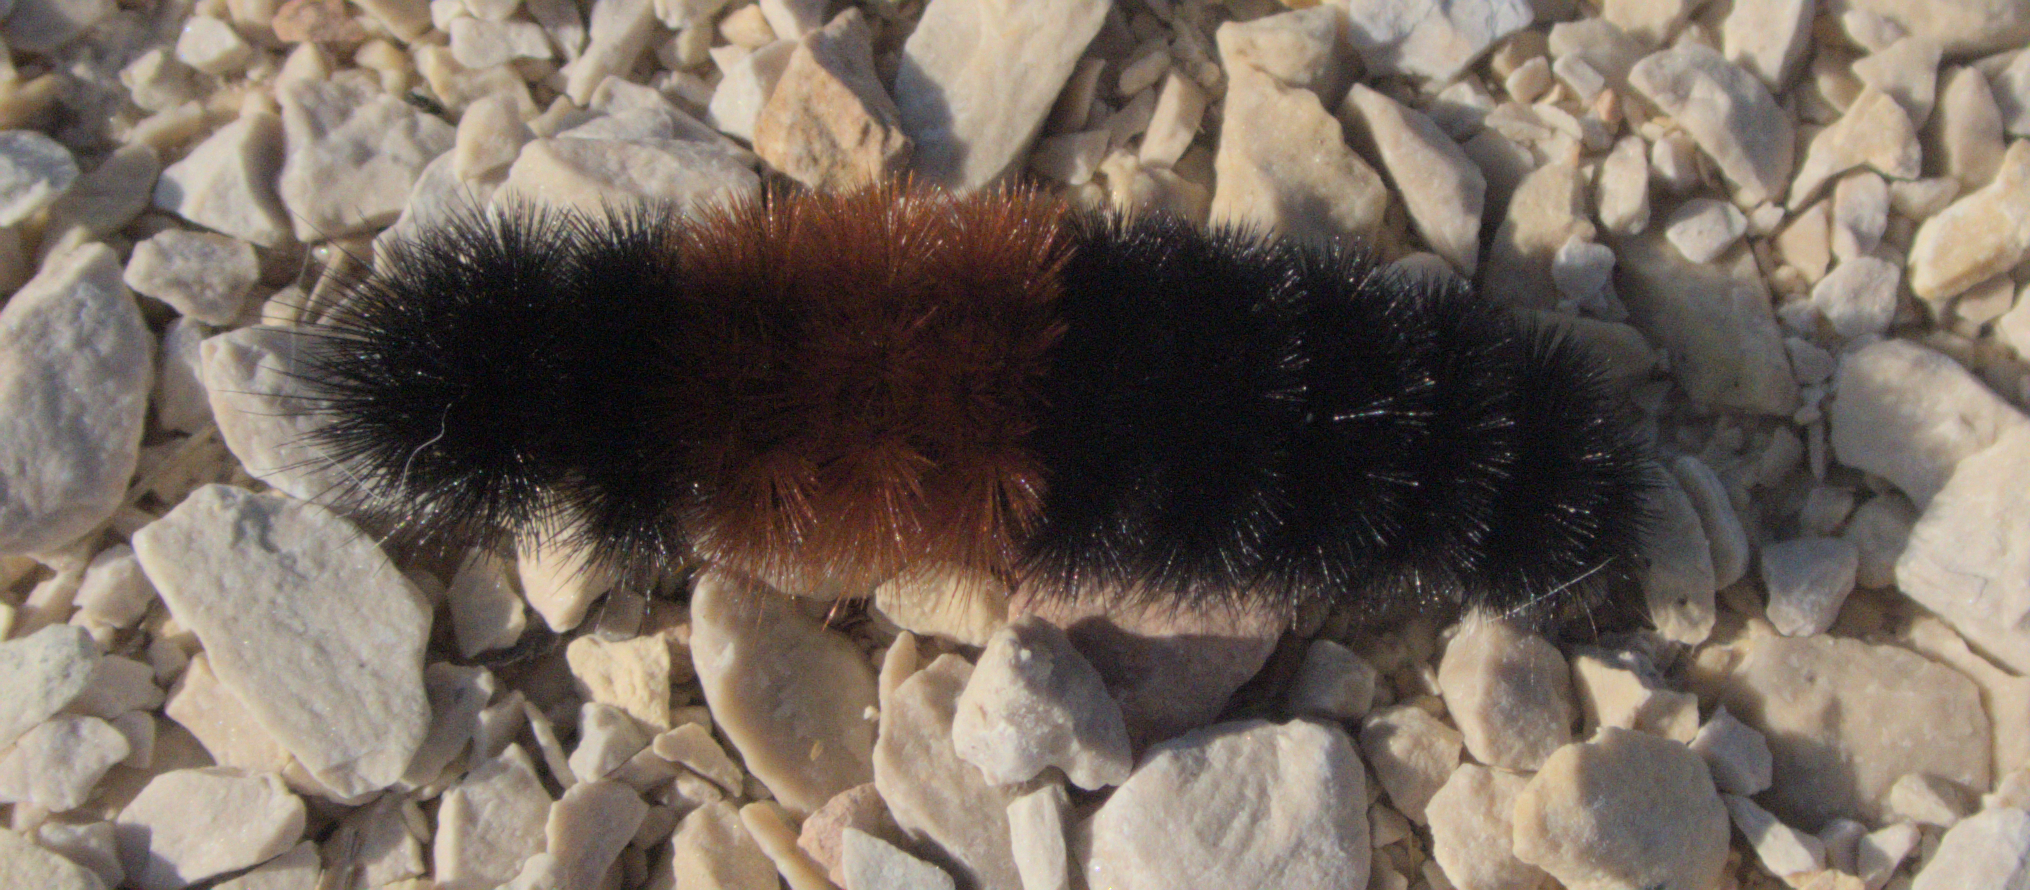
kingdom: Animalia
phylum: Arthropoda
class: Insecta
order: Lepidoptera
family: Erebidae
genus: Pyrrharctia
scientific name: Pyrrharctia isabella
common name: Isabella tiger moth
